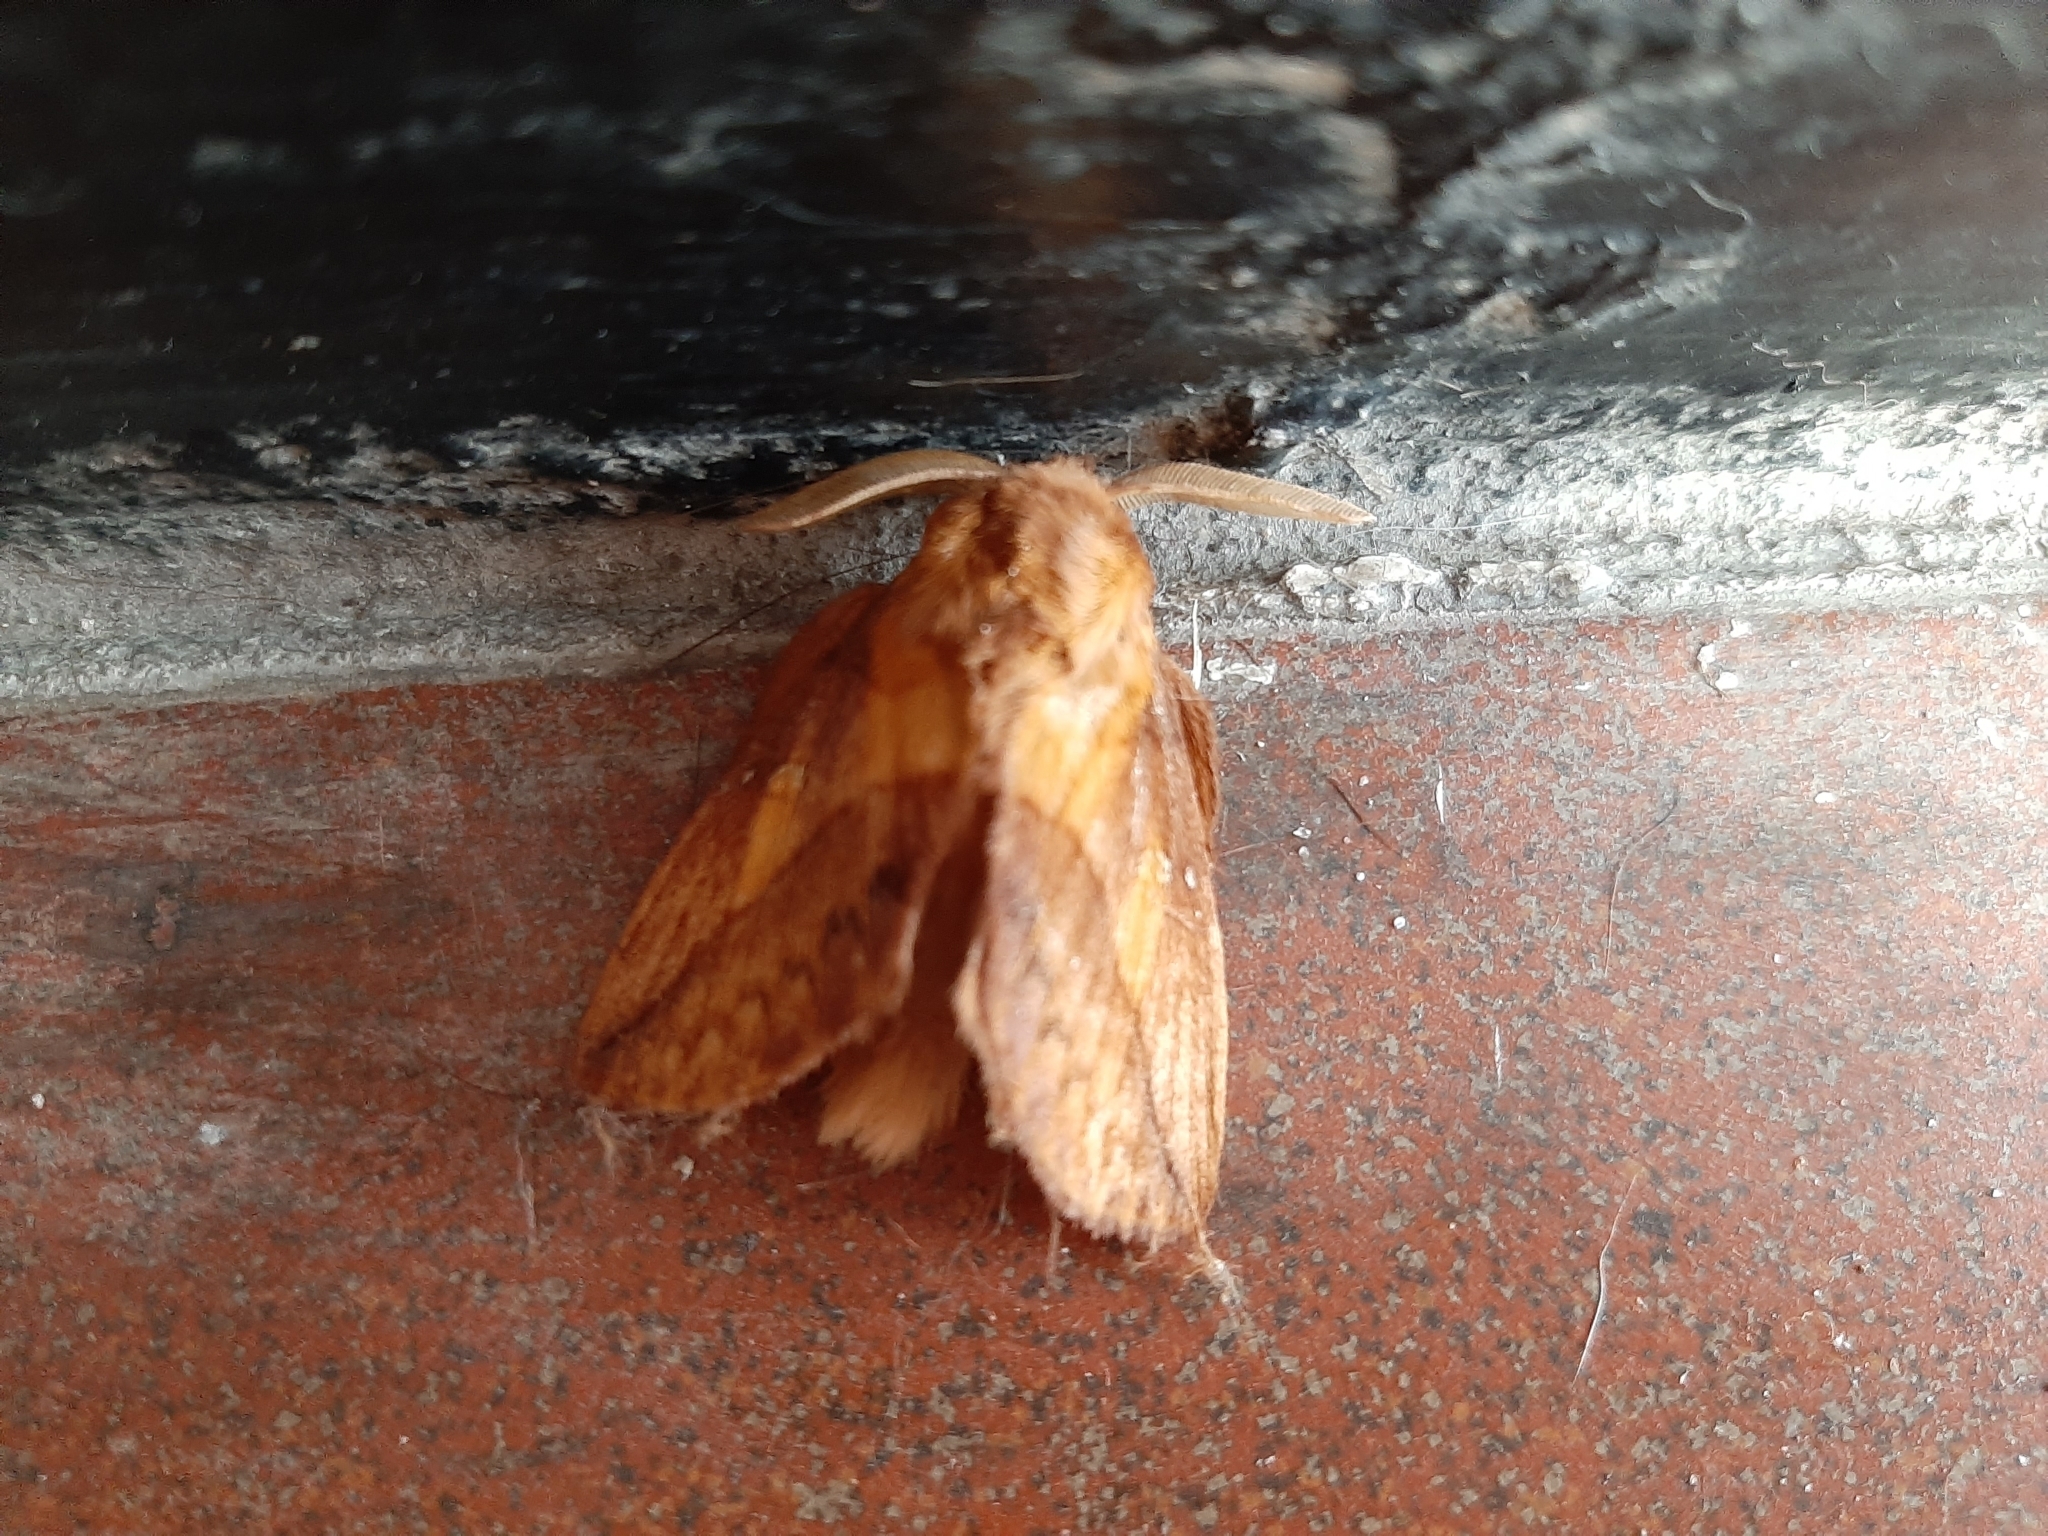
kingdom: Animalia
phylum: Arthropoda
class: Insecta
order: Lepidoptera
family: Lasiocampidae
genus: Euthrix
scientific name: Euthrix potatoria
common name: Drinker
